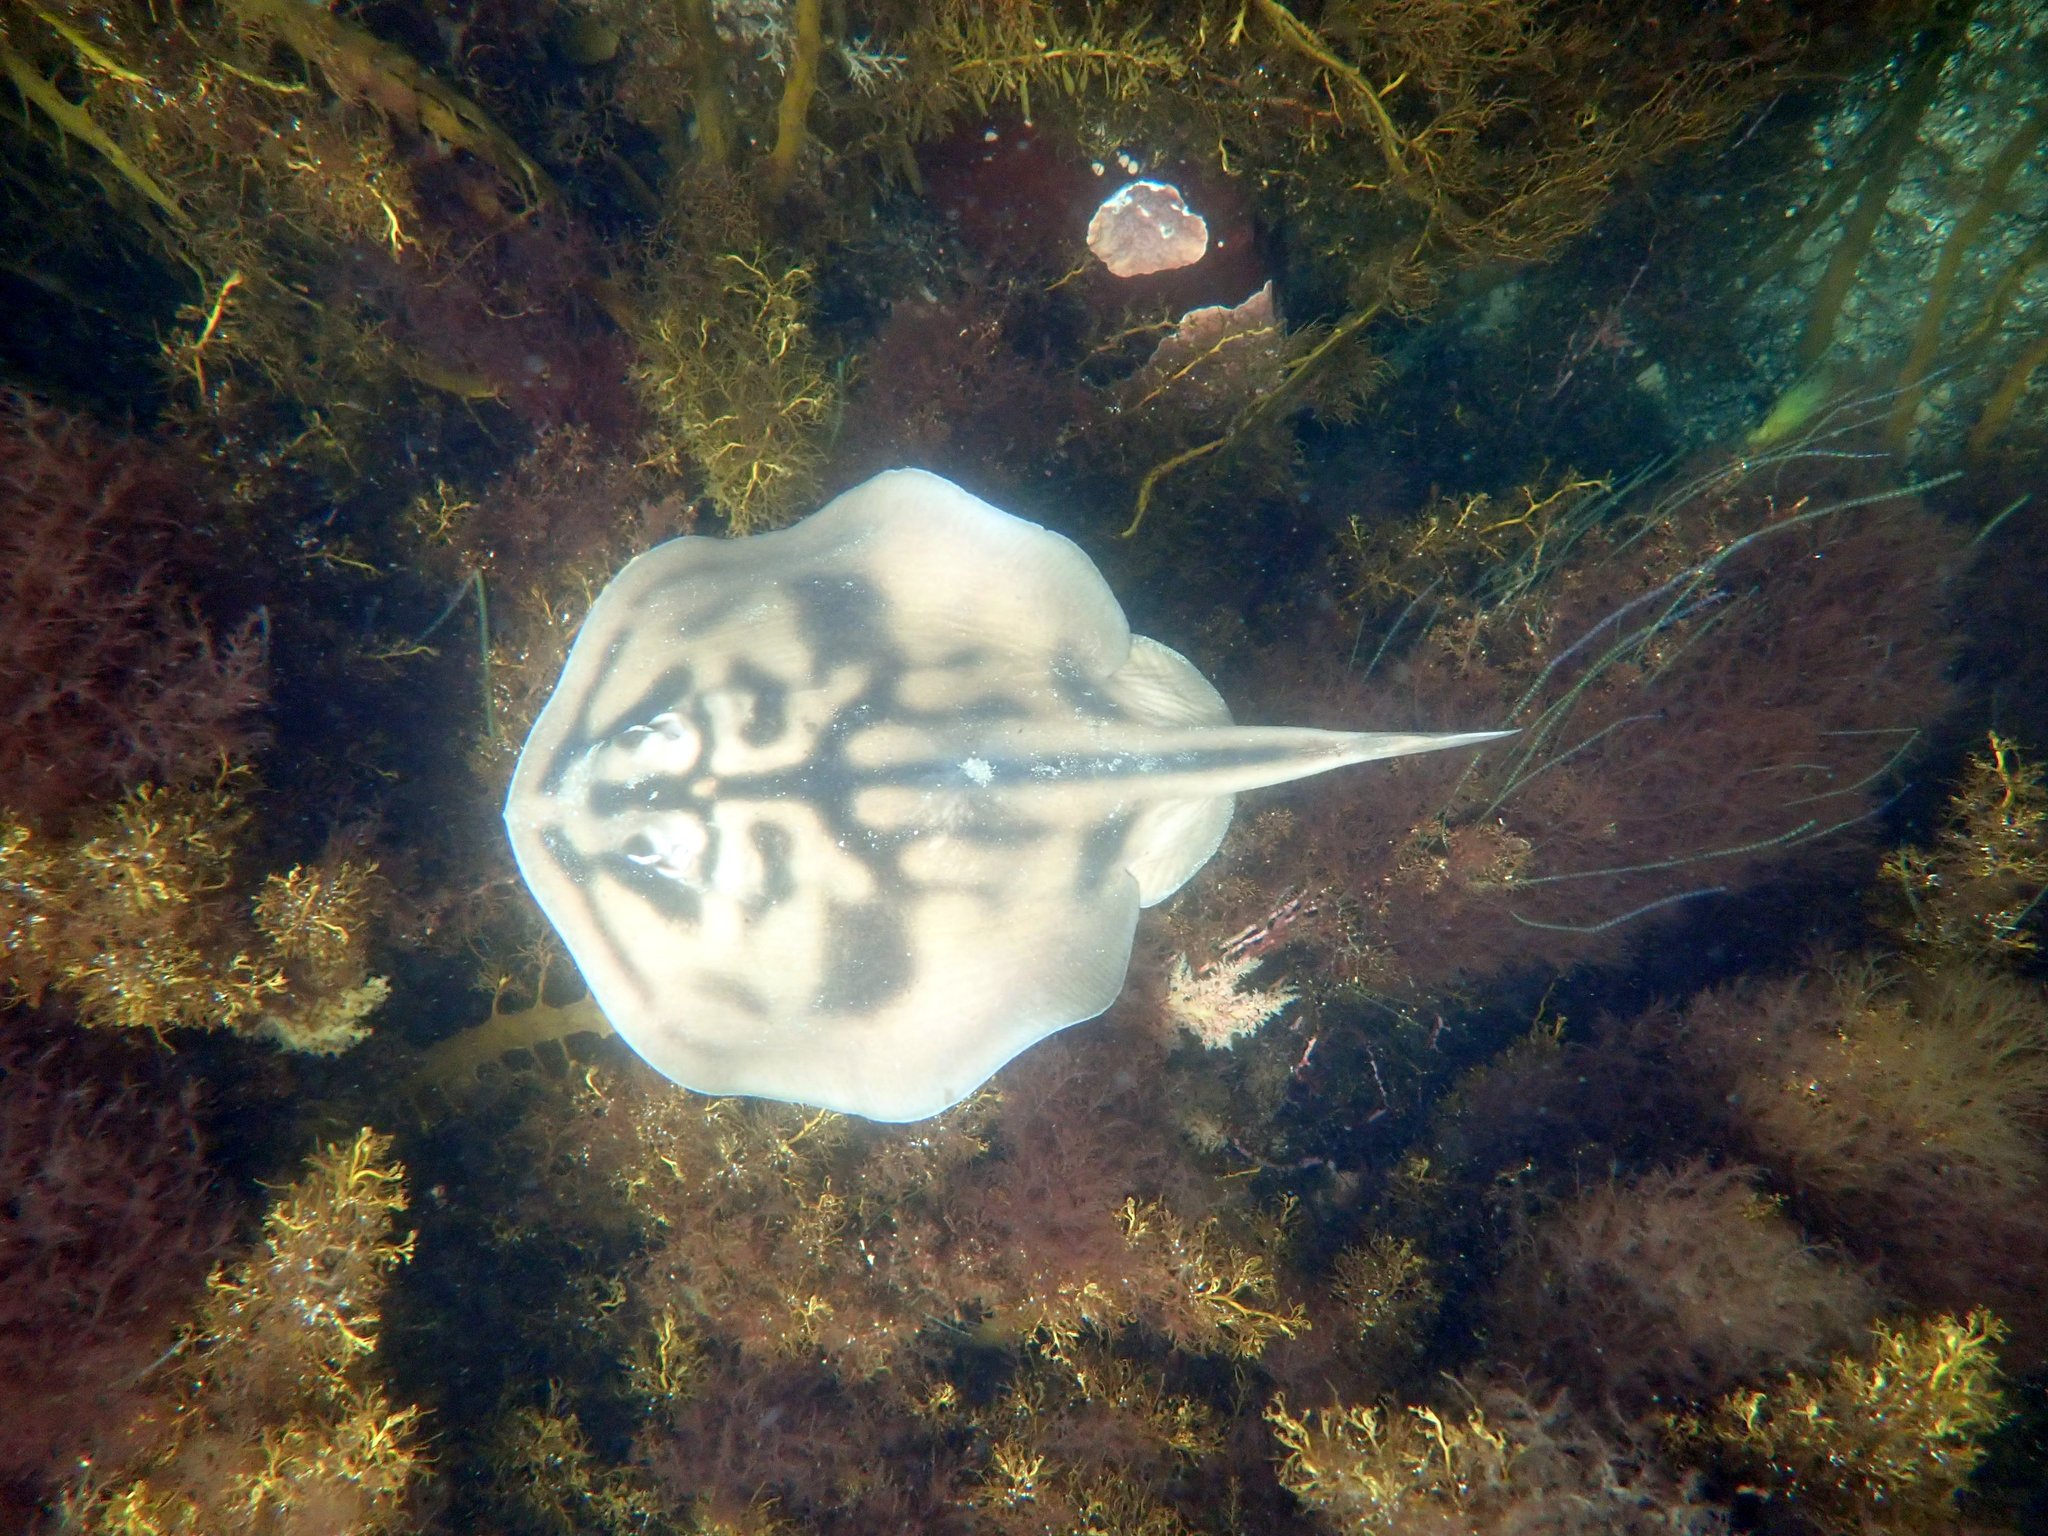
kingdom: Animalia
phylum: Chordata
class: Elasmobranchii
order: Myliobatiformes
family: Urolophidae
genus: Urolophus
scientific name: Urolophus cruciatus
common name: Banded stingaree
